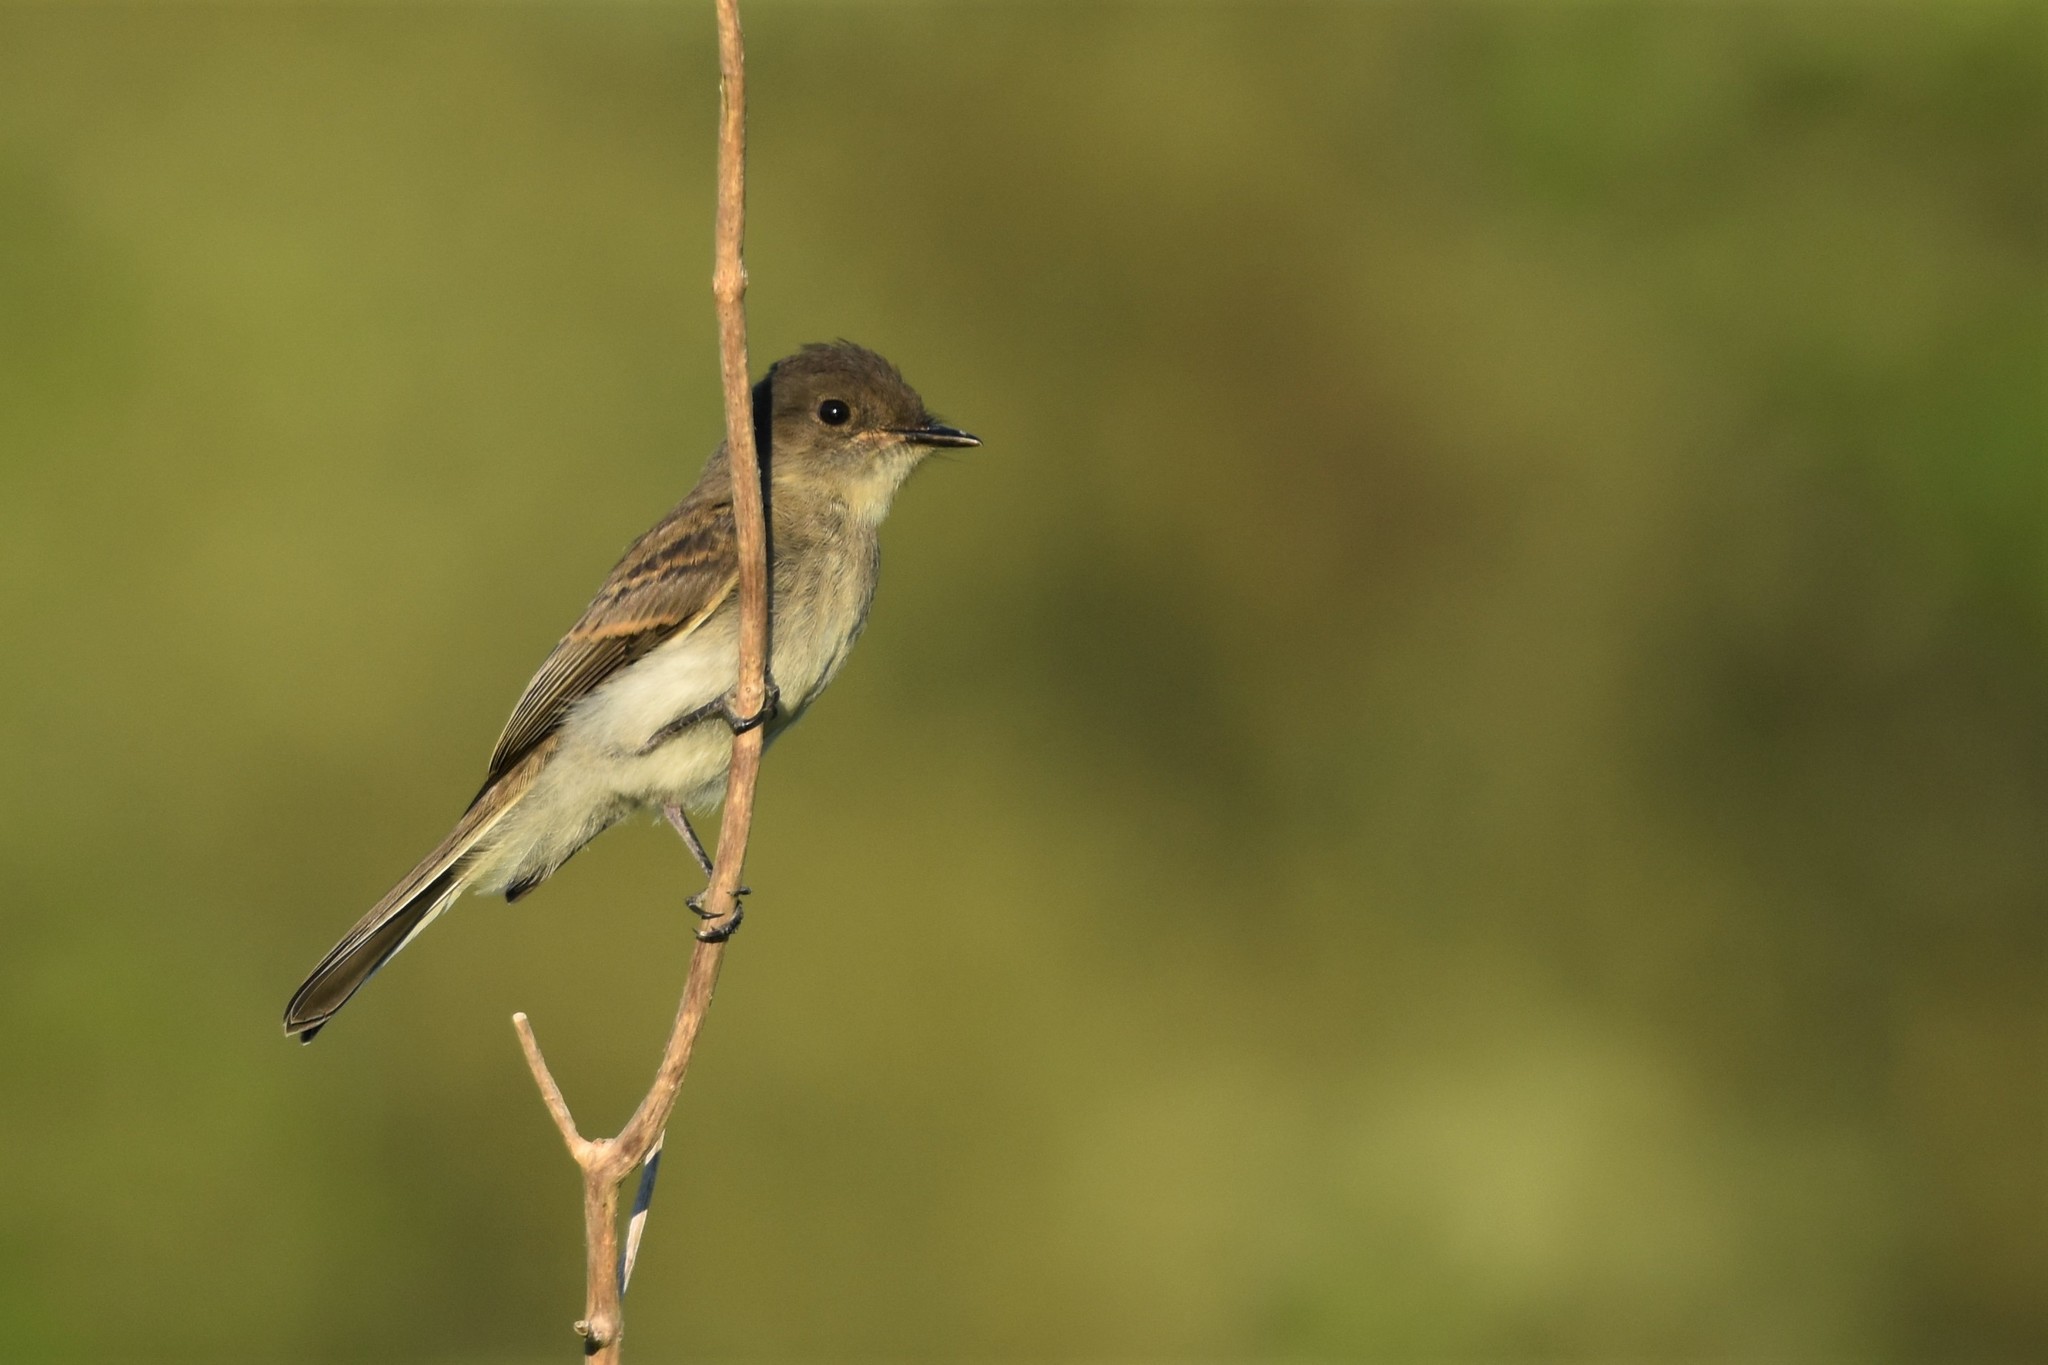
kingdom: Animalia
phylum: Chordata
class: Aves
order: Passeriformes
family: Tyrannidae
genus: Sayornis
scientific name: Sayornis phoebe
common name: Eastern phoebe
